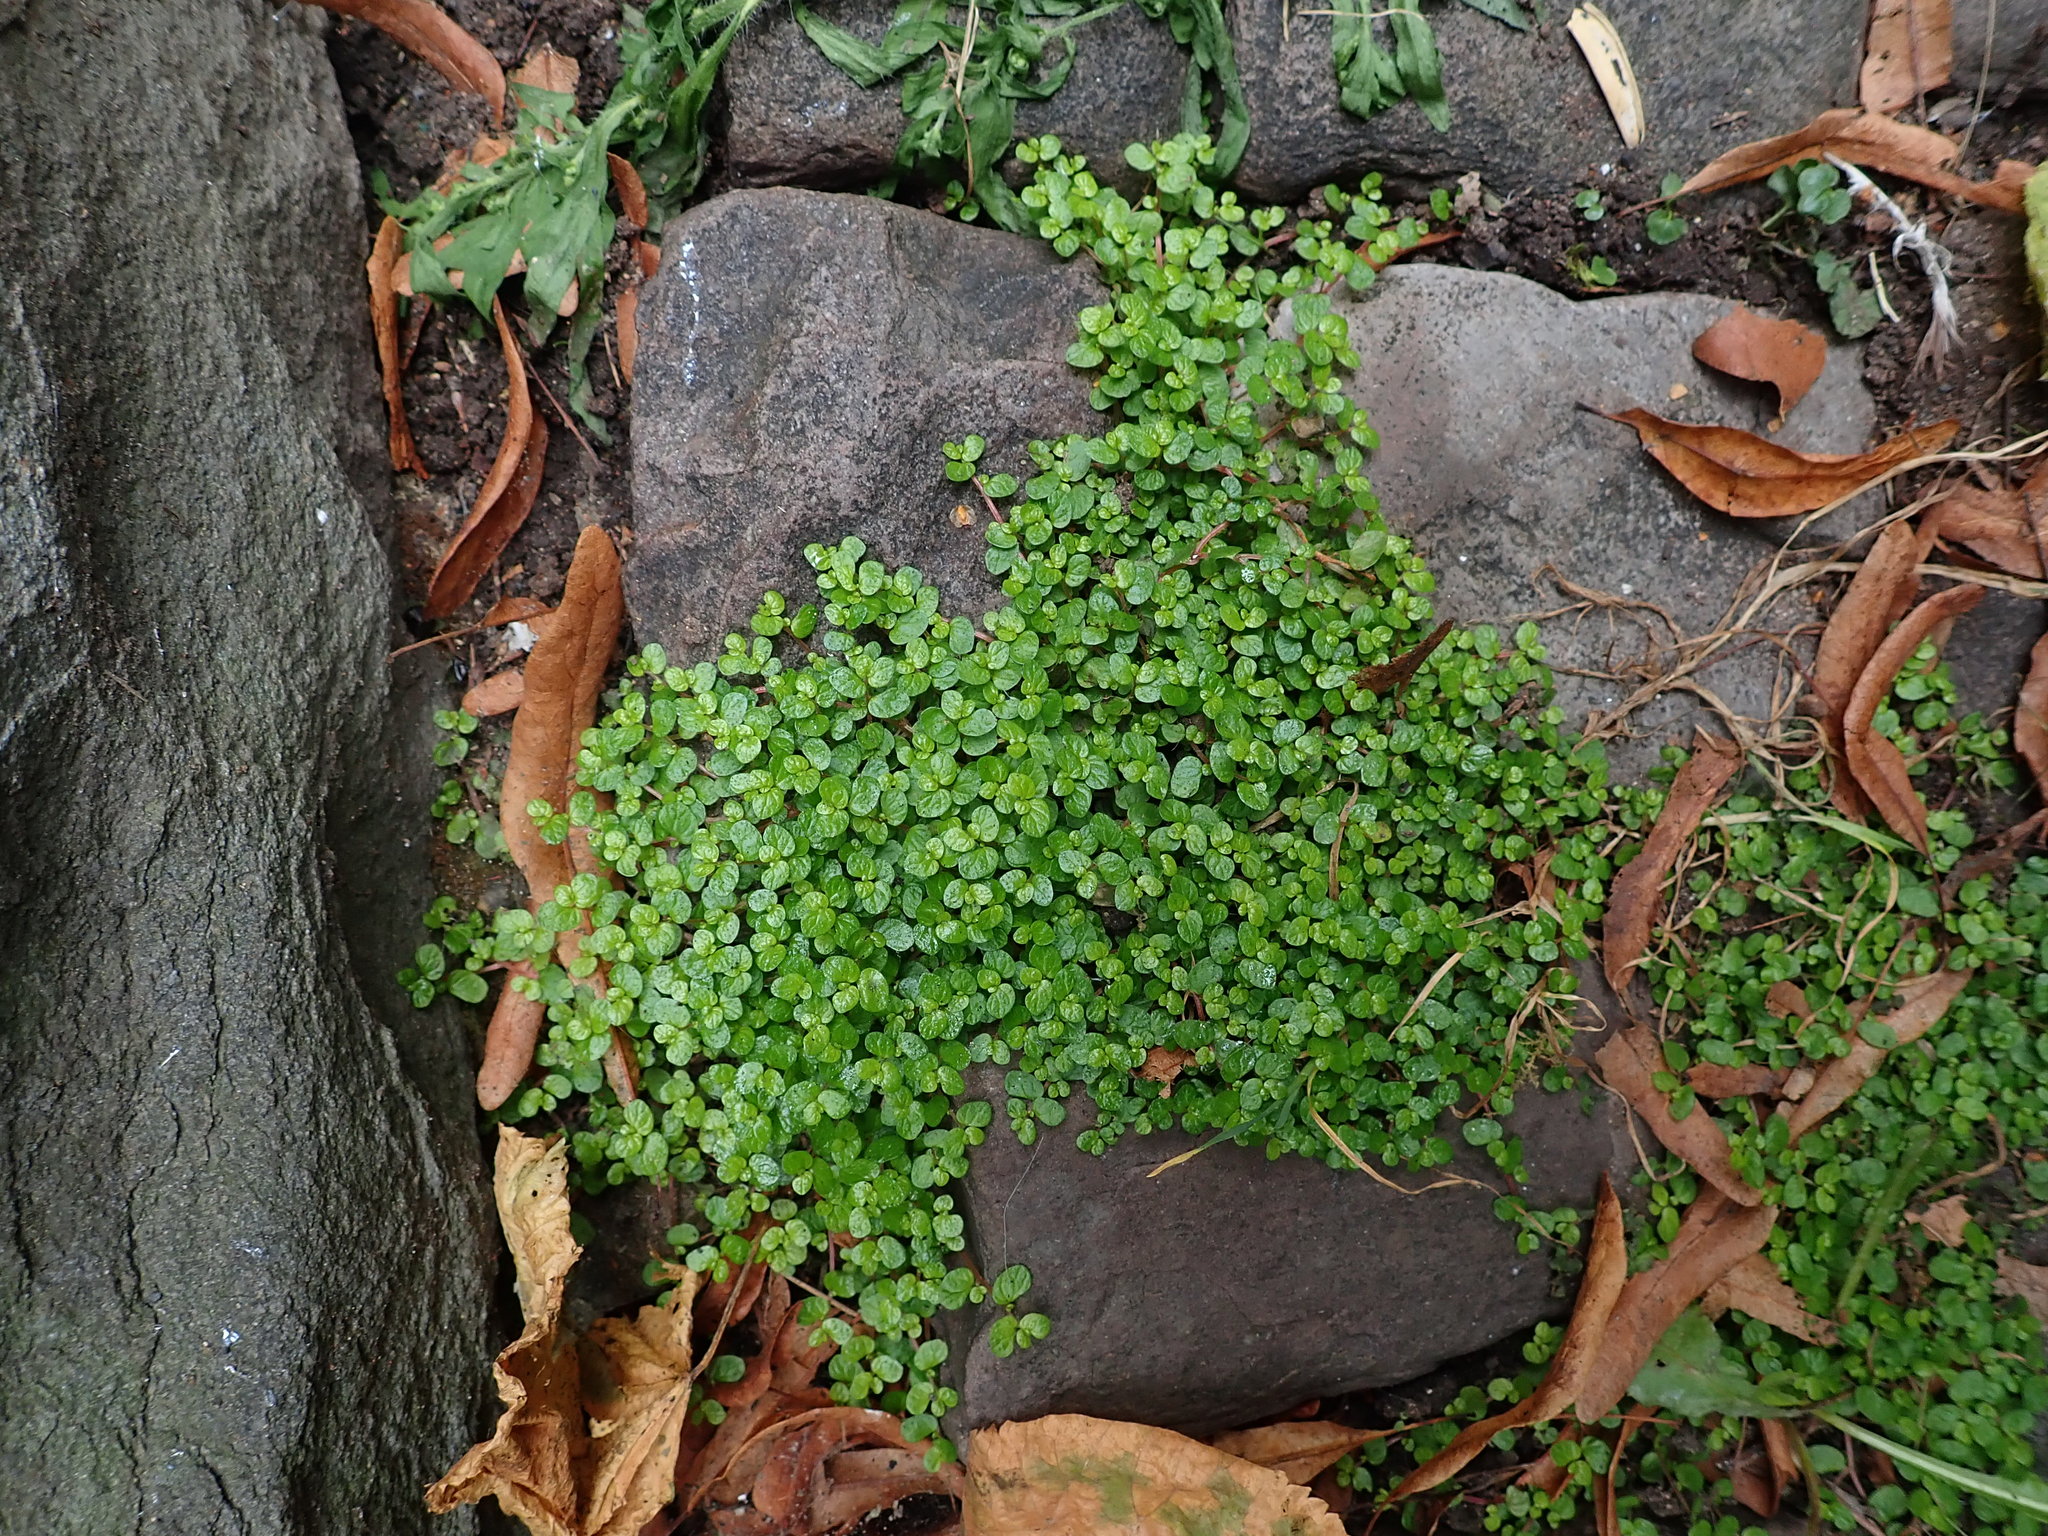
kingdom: Plantae
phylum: Tracheophyta
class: Magnoliopsida
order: Rosales
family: Urticaceae
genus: Soleirolia
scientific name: Soleirolia soleirolii
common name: Mind-your-own-business
